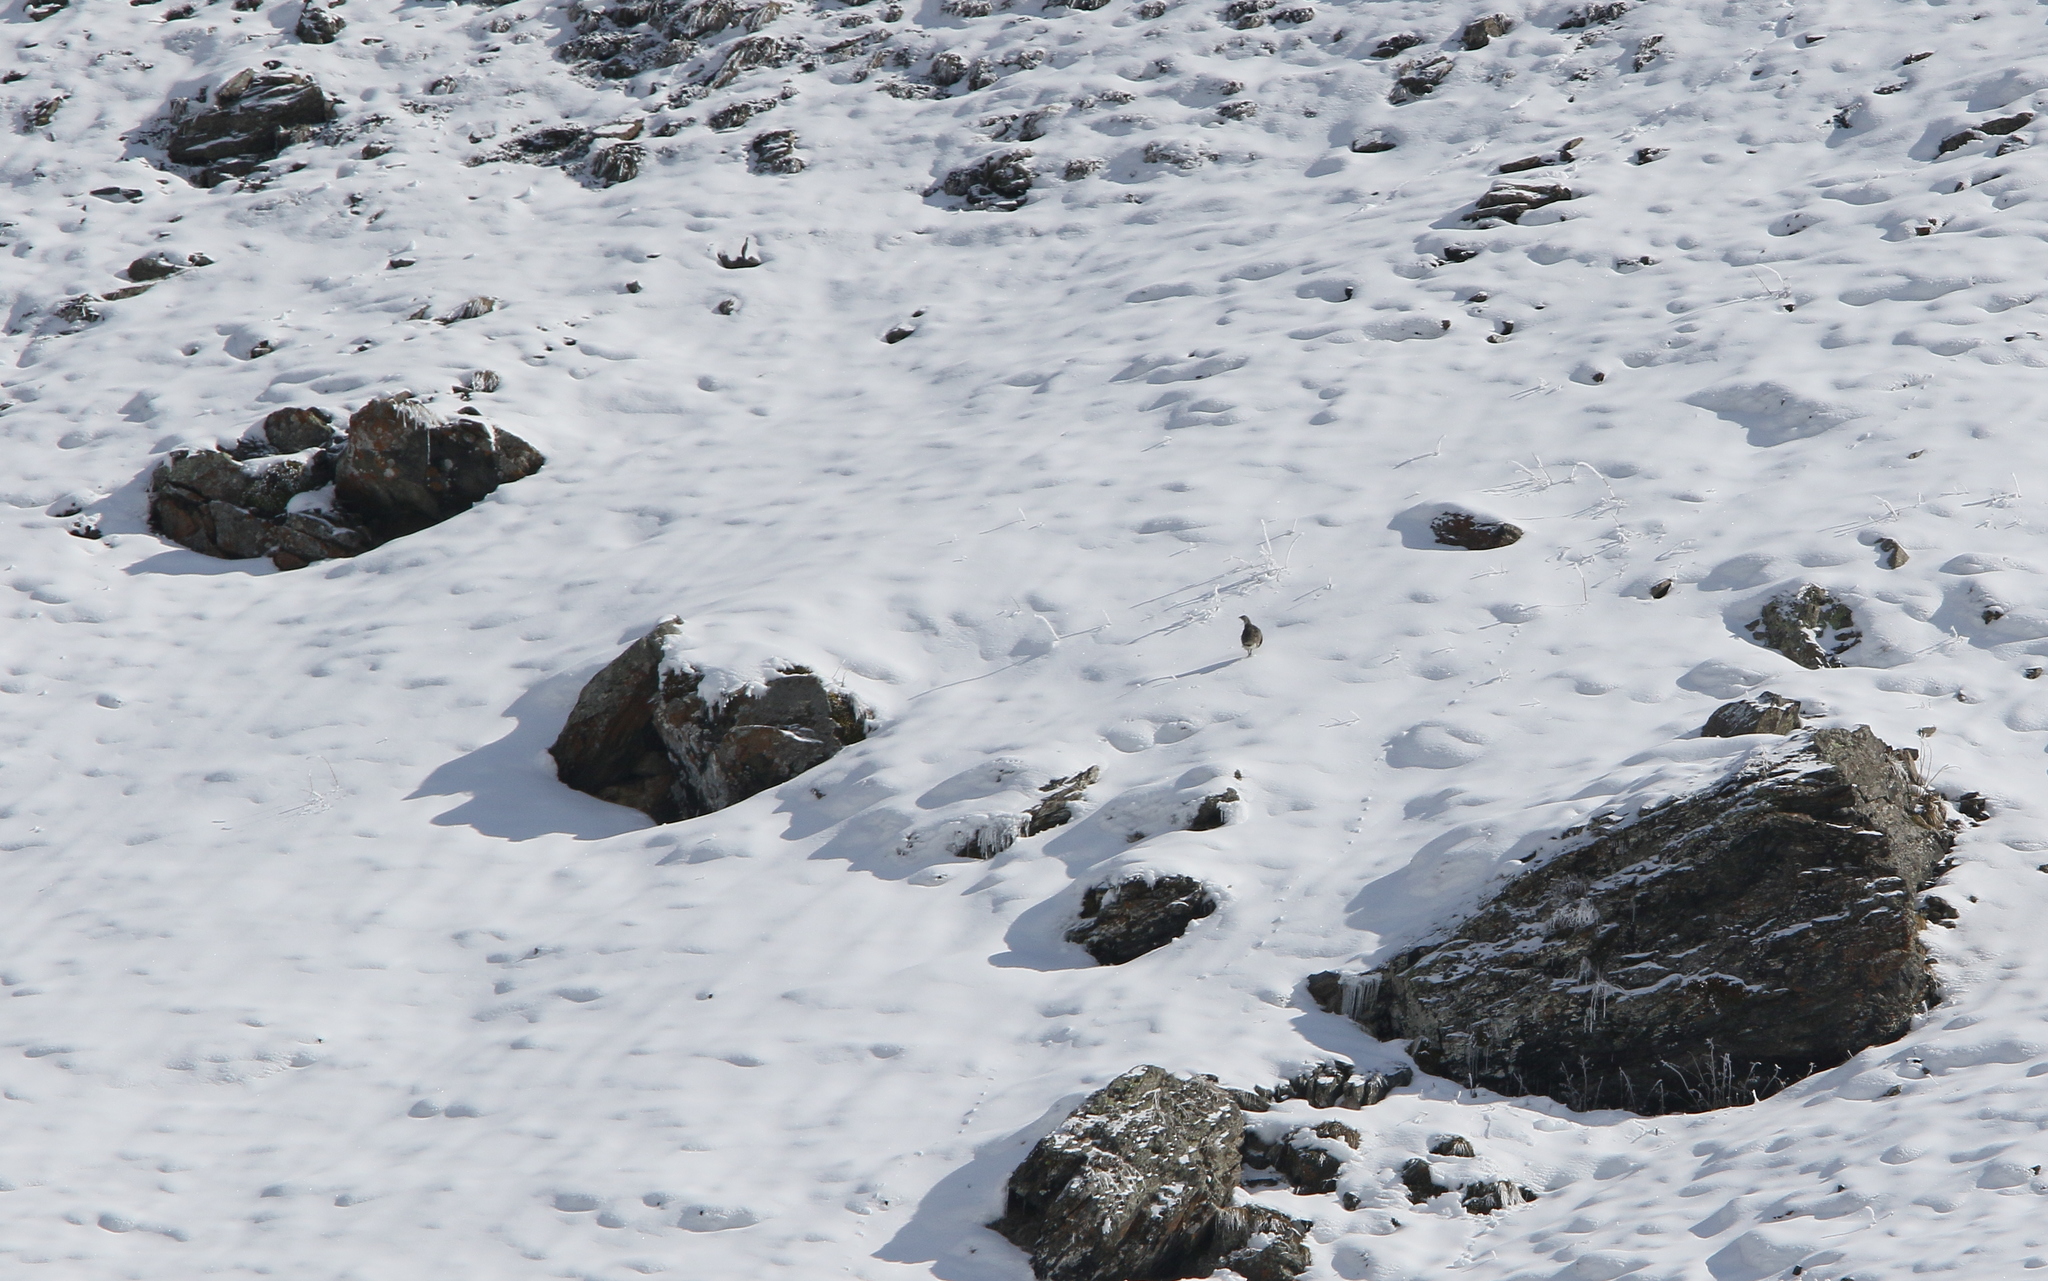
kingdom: Animalia
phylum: Chordata
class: Aves
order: Galliformes
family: Phasianidae
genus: Tetraogallus
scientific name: Tetraogallus caucasicus
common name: Caucasian snowcock
